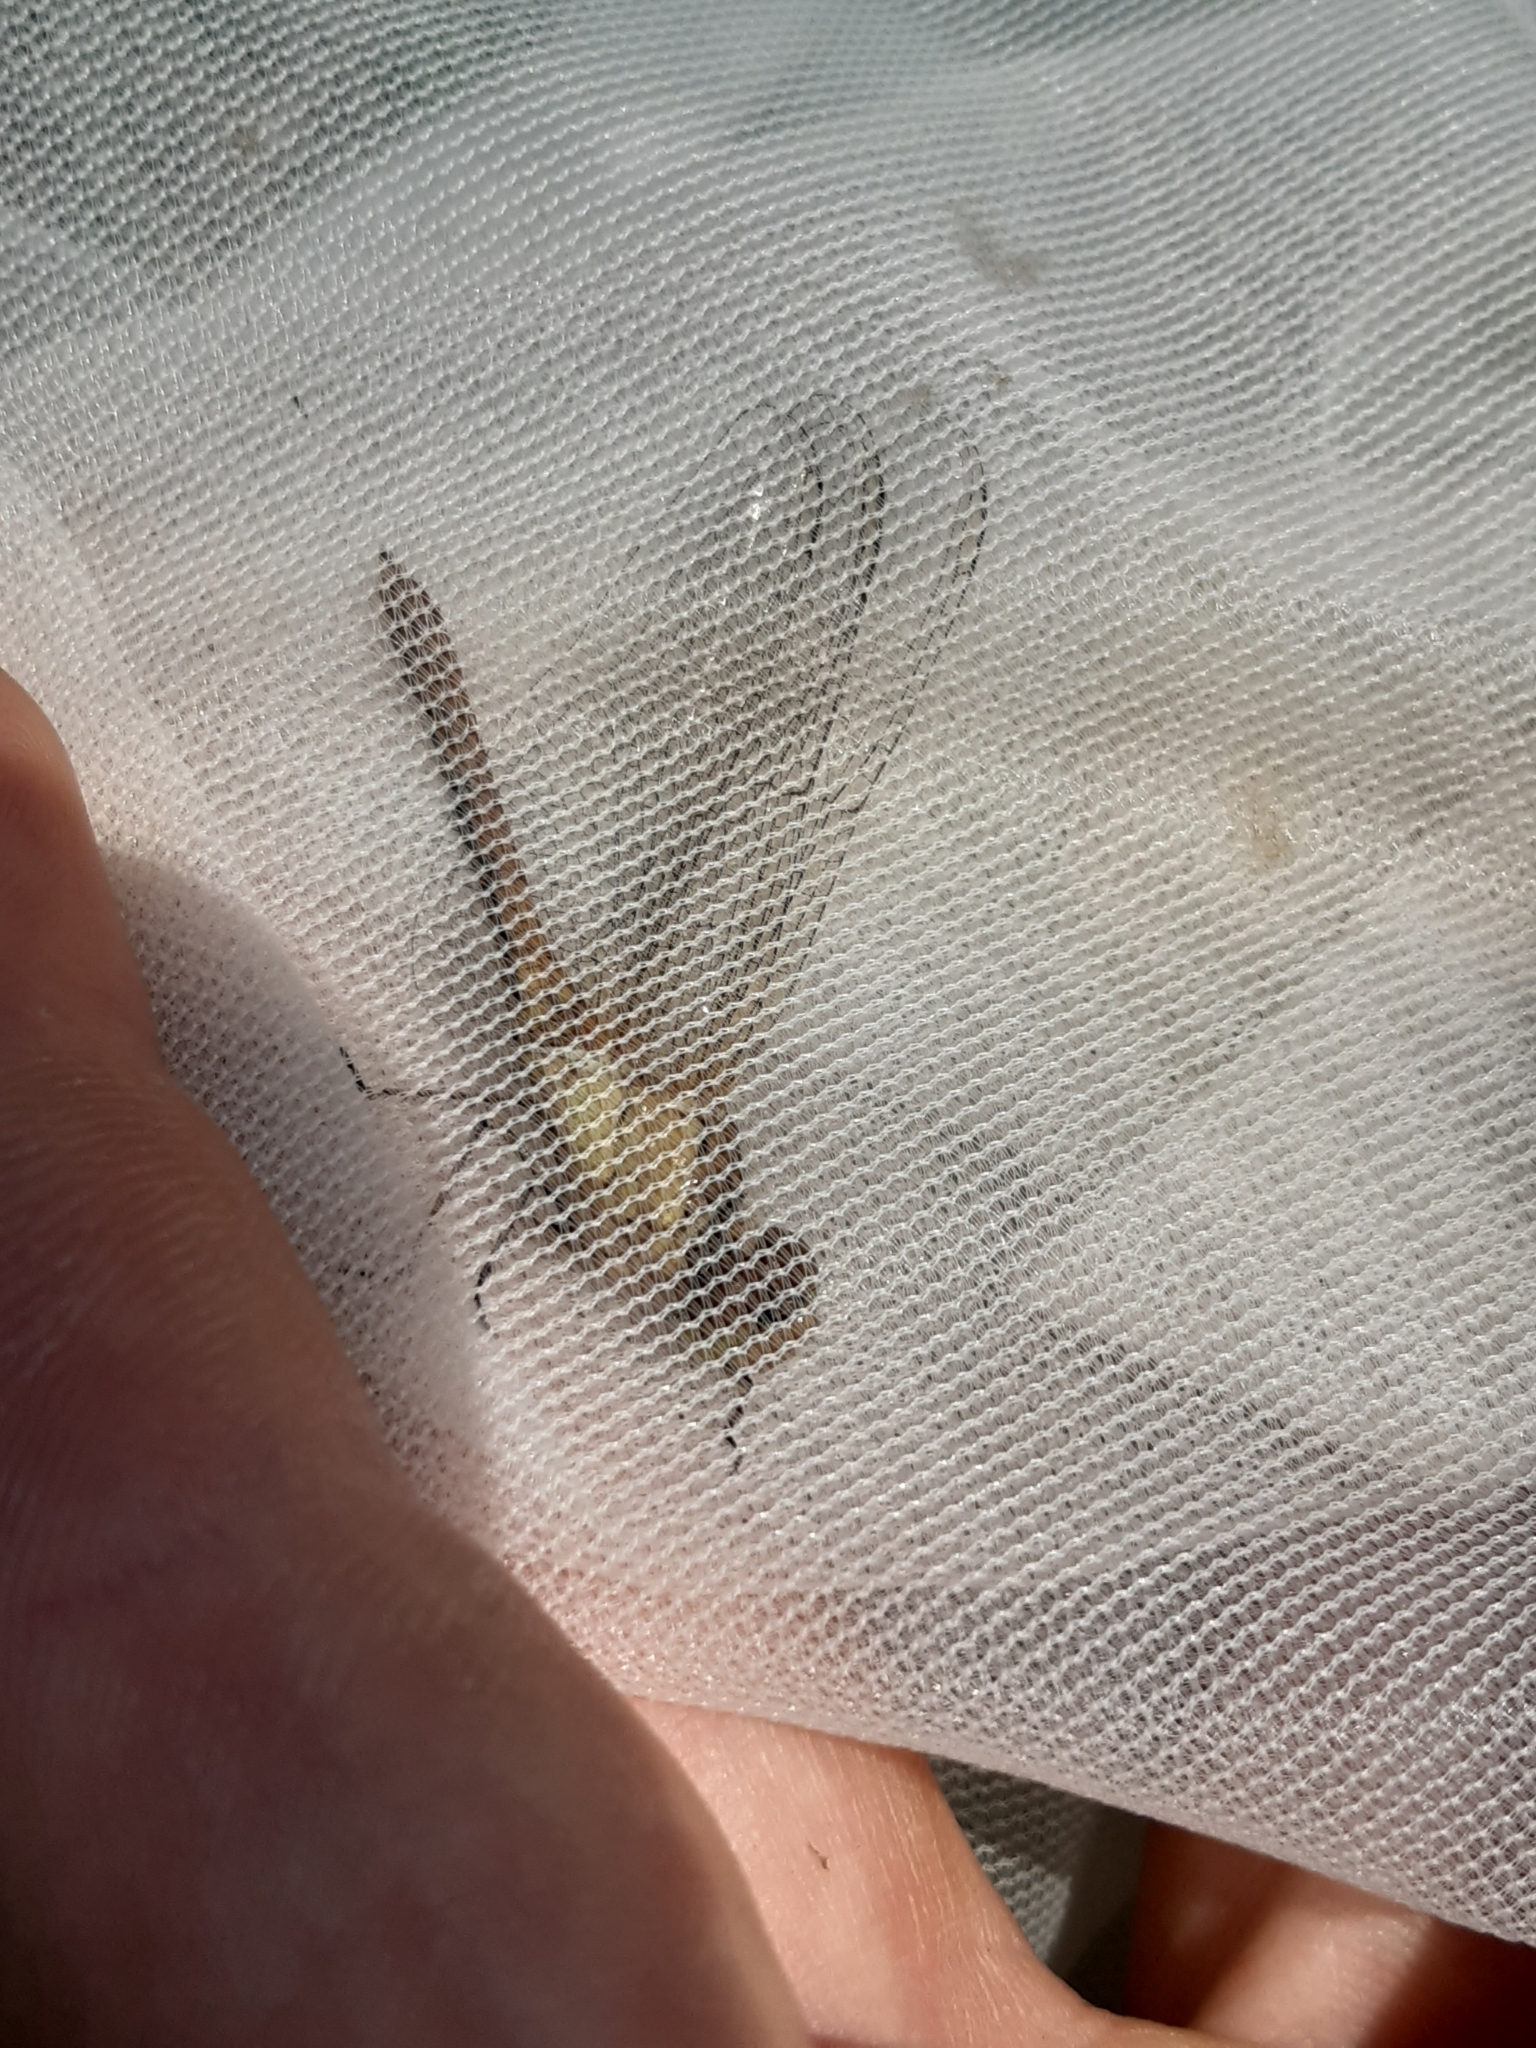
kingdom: Animalia
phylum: Arthropoda
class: Insecta
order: Odonata
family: Libellulidae
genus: Sympetrum
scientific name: Sympetrum meridionale
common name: Southern darter
